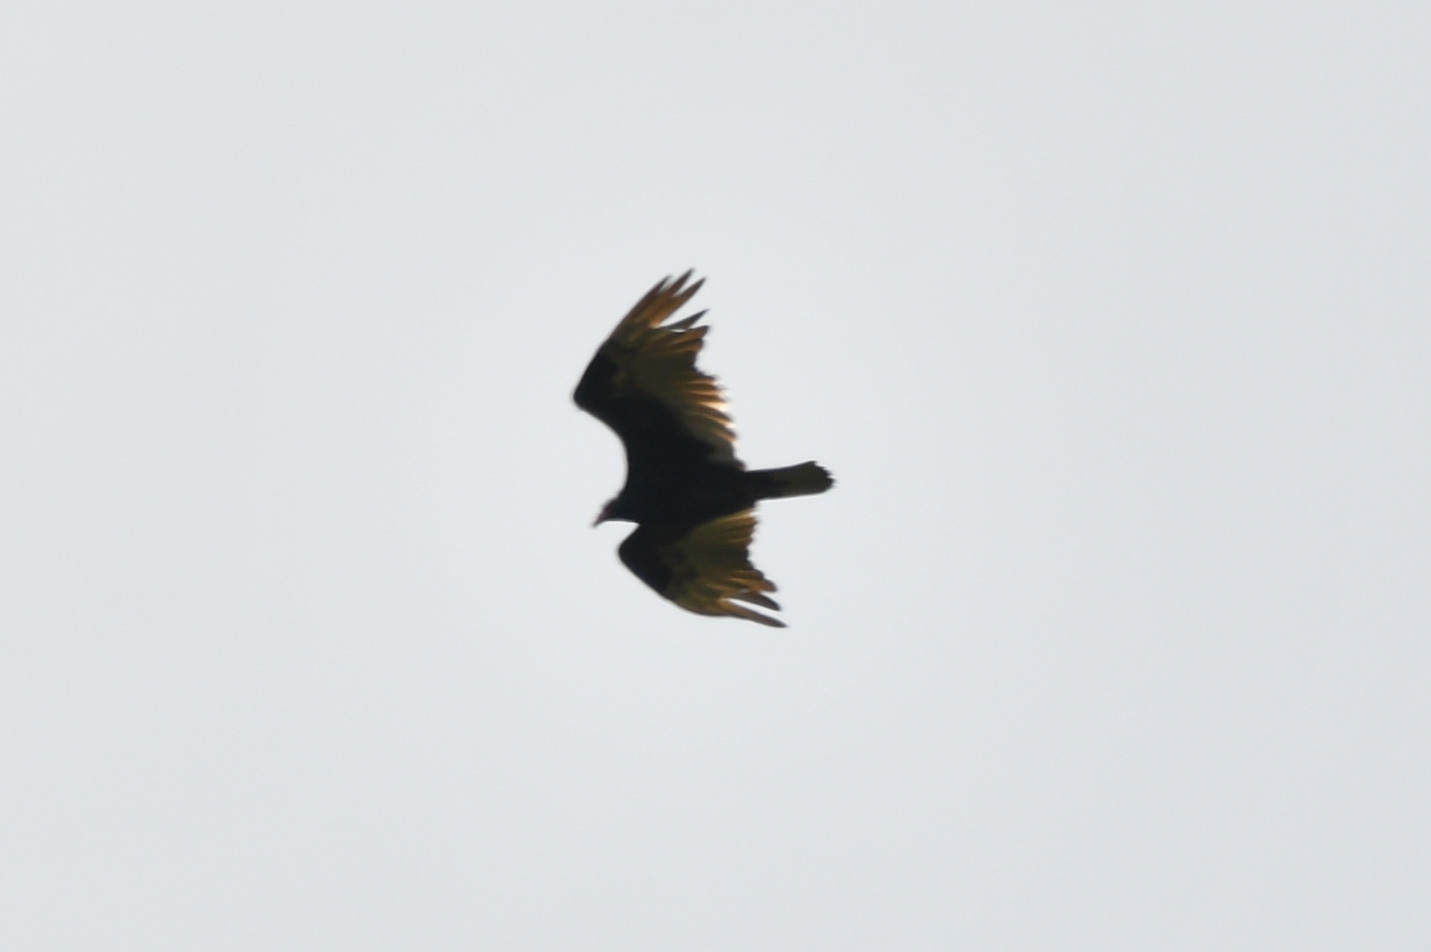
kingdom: Animalia
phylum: Chordata
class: Aves
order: Accipitriformes
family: Cathartidae
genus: Cathartes
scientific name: Cathartes aura
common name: Turkey vulture
